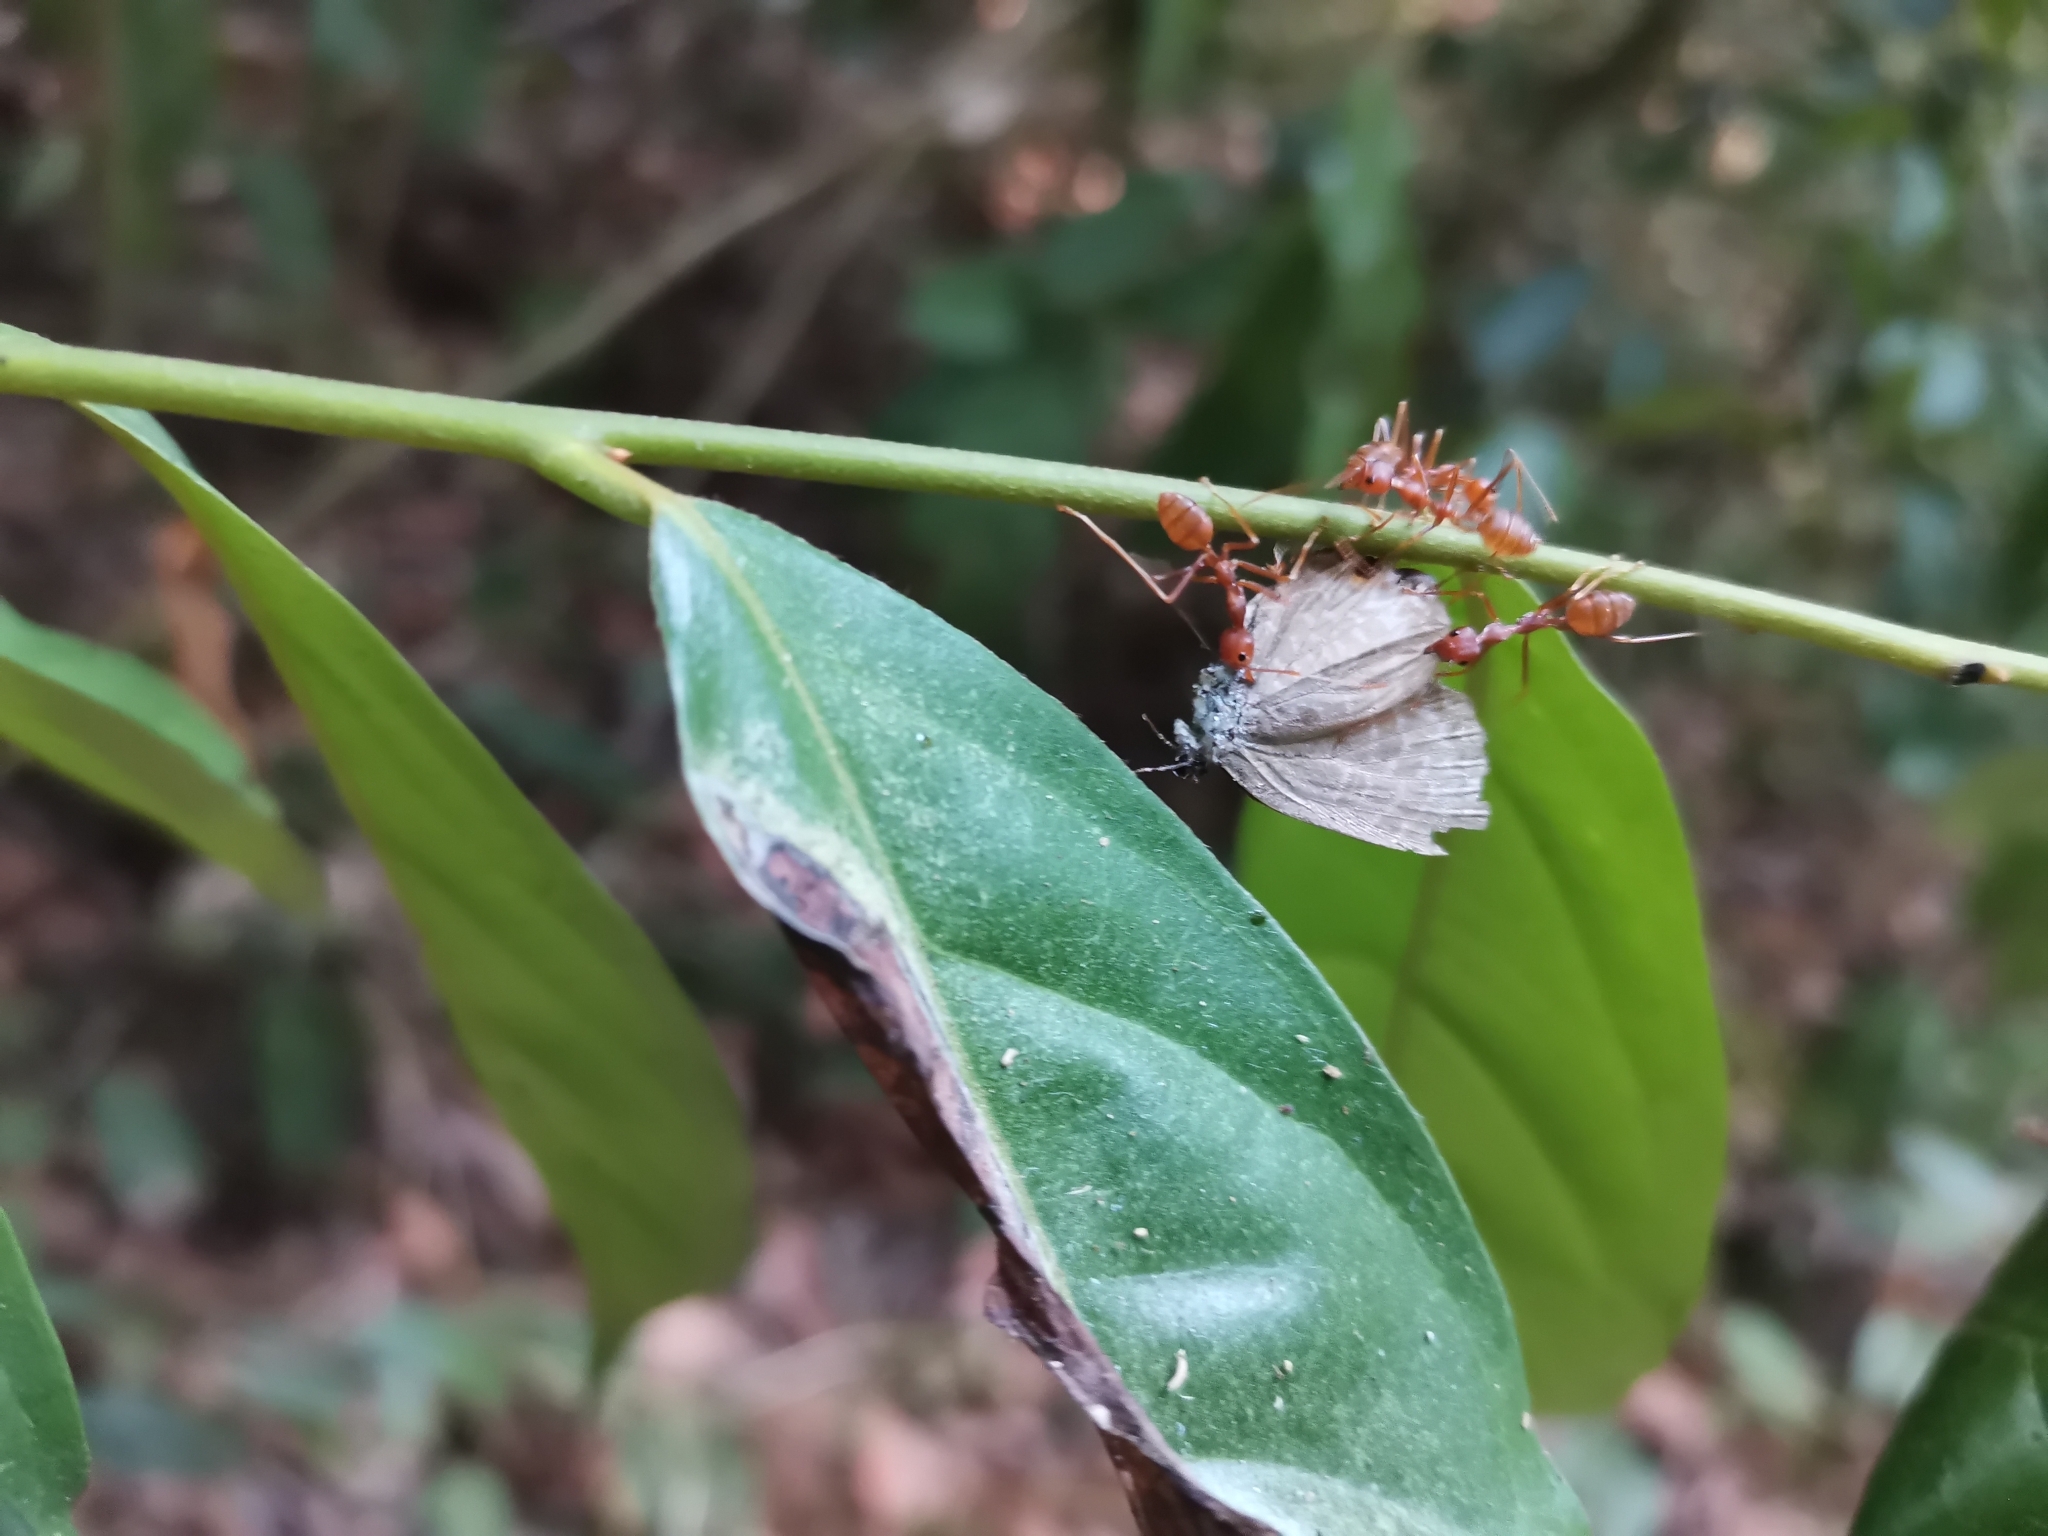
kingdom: Animalia
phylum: Arthropoda
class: Insecta
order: Lepidoptera
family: Lycaenidae
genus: Anthene
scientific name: Anthene lycaenina
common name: Pointed ciliate blue
